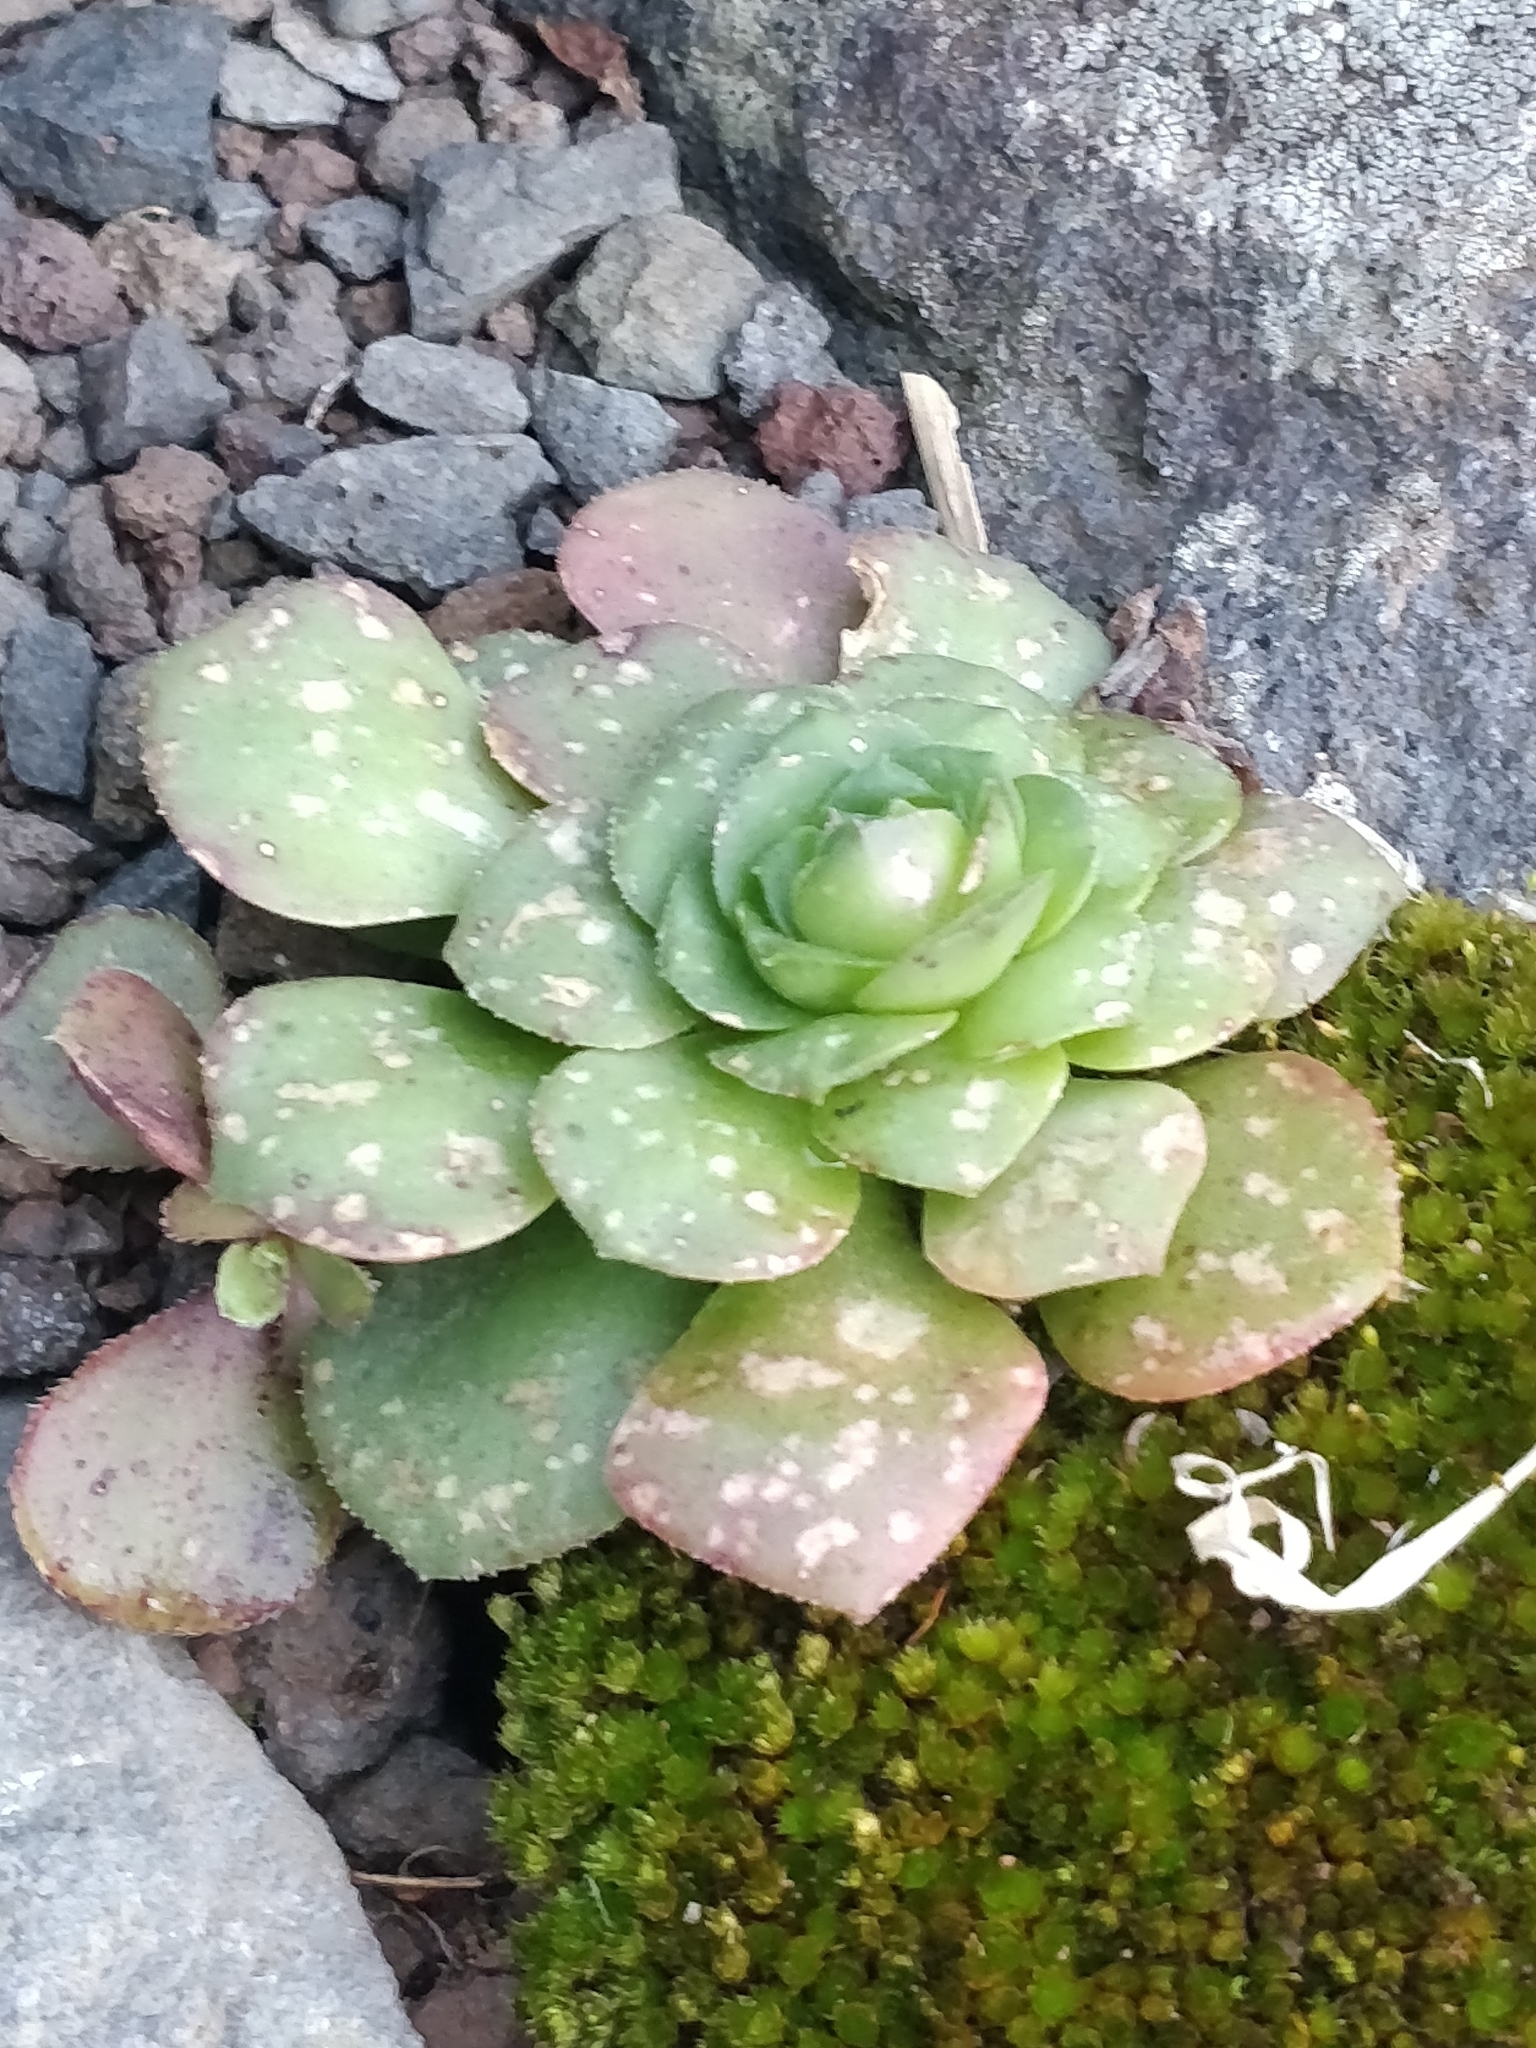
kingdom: Plantae
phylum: Tracheophyta
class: Magnoliopsida
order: Saxifragales
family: Crassulaceae
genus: Aeonium
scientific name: Aeonium glandulosum
